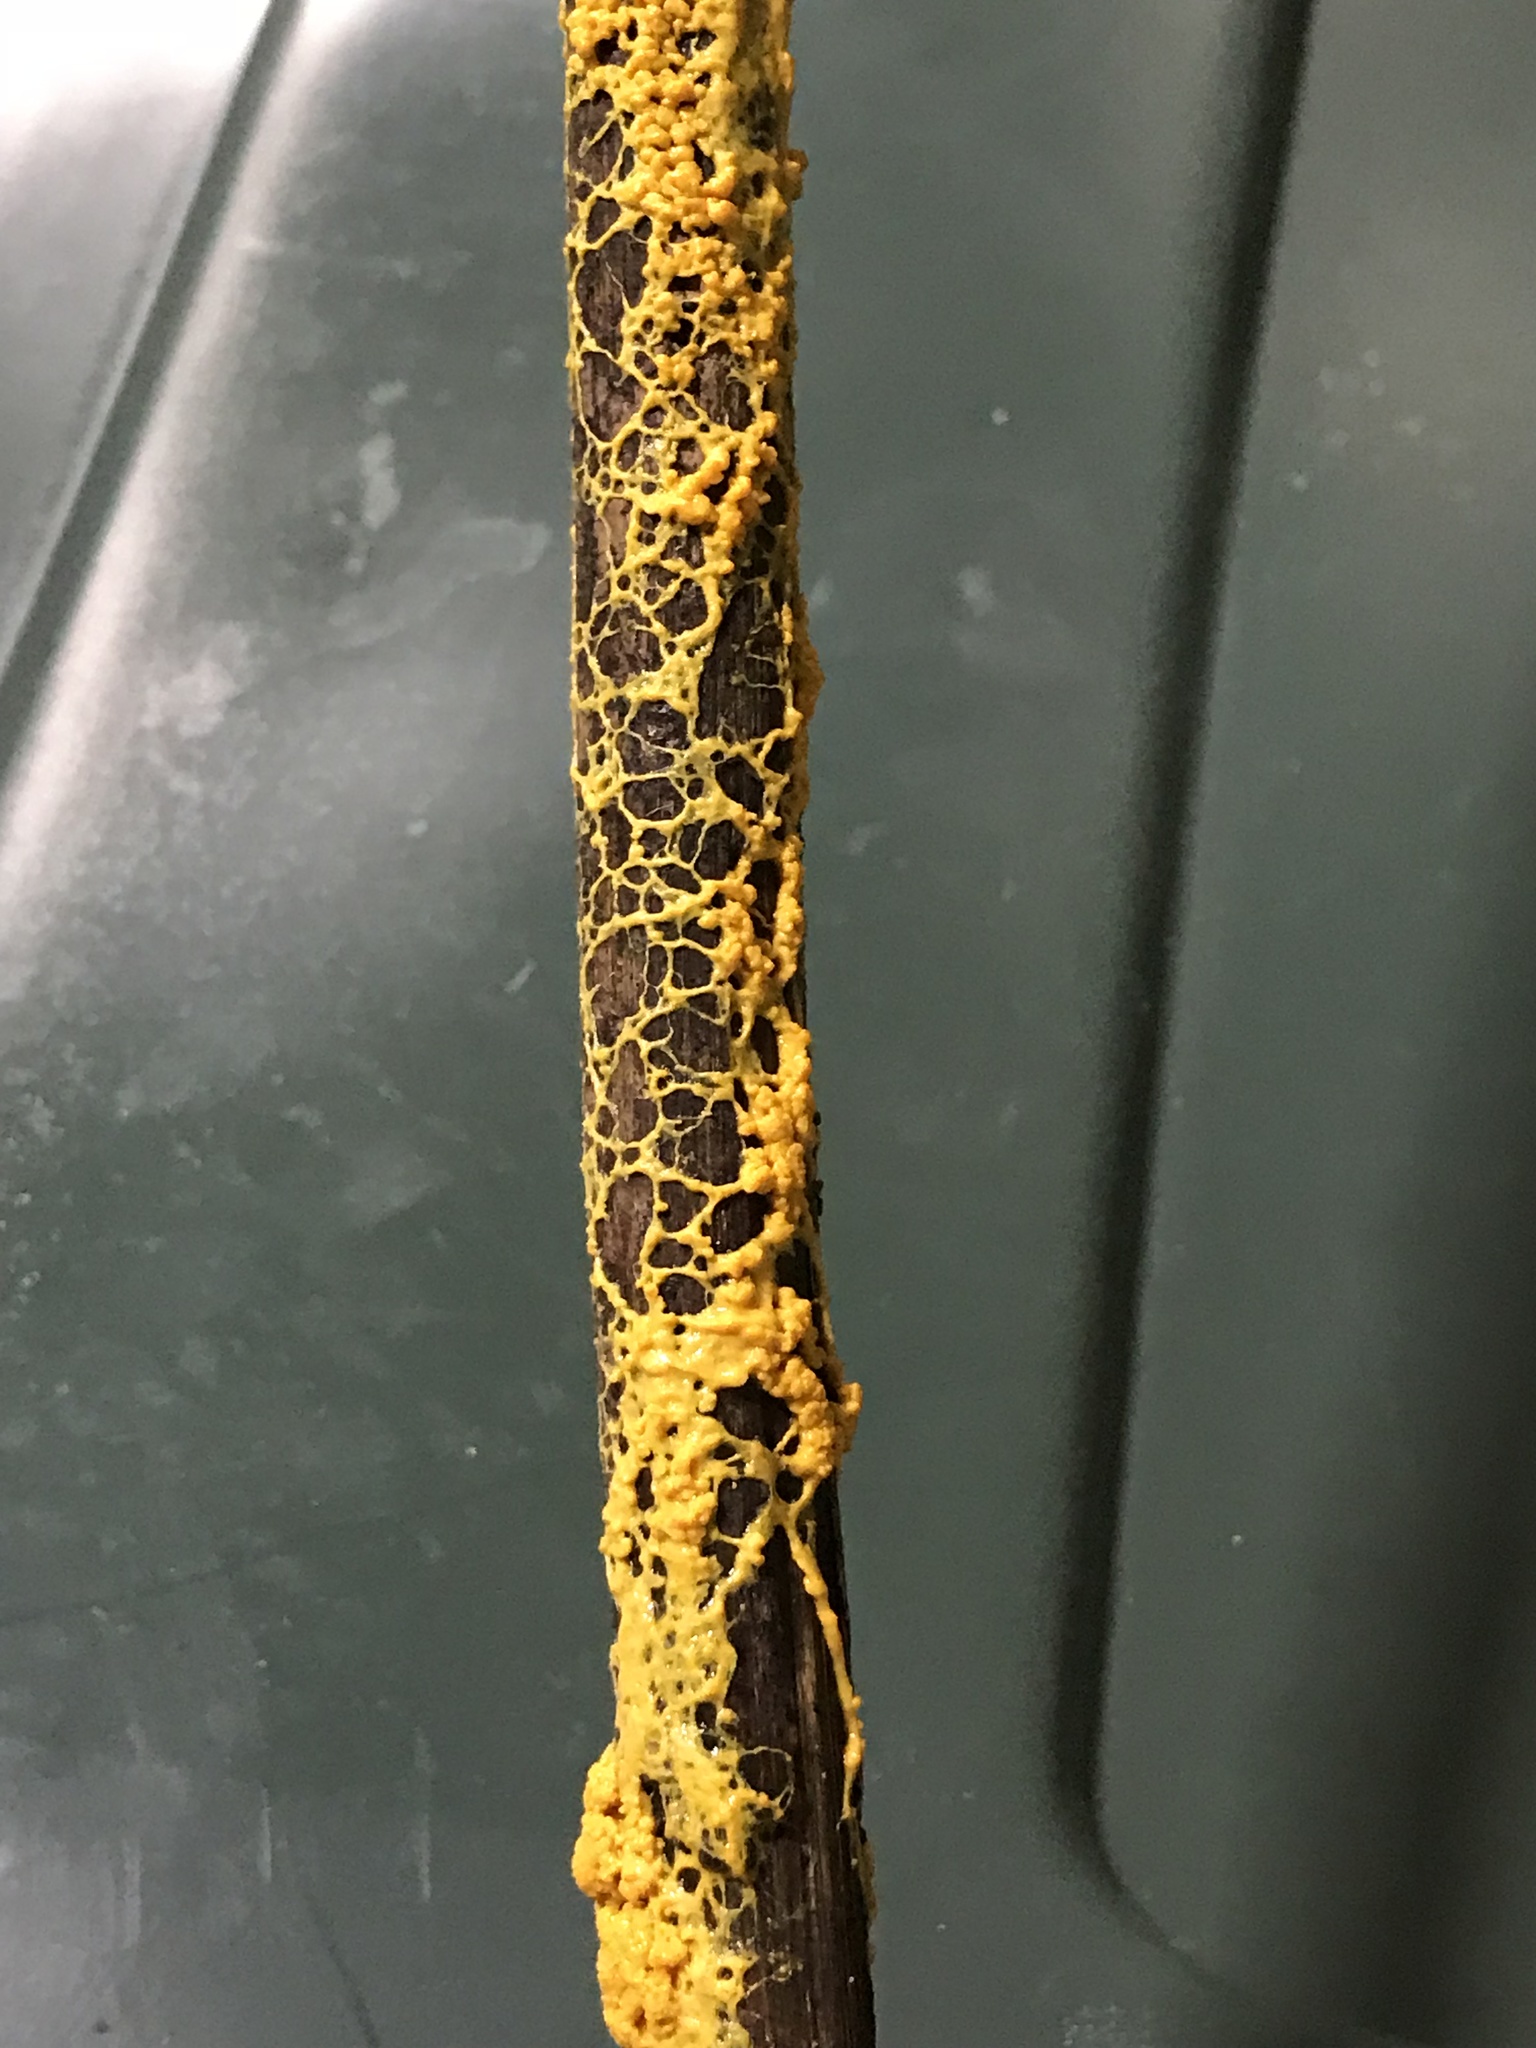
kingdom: Protozoa
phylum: Mycetozoa
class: Myxomycetes
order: Physarales
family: Physaraceae
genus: Leocarpus
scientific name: Leocarpus fragilis
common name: Insect-egg slime
